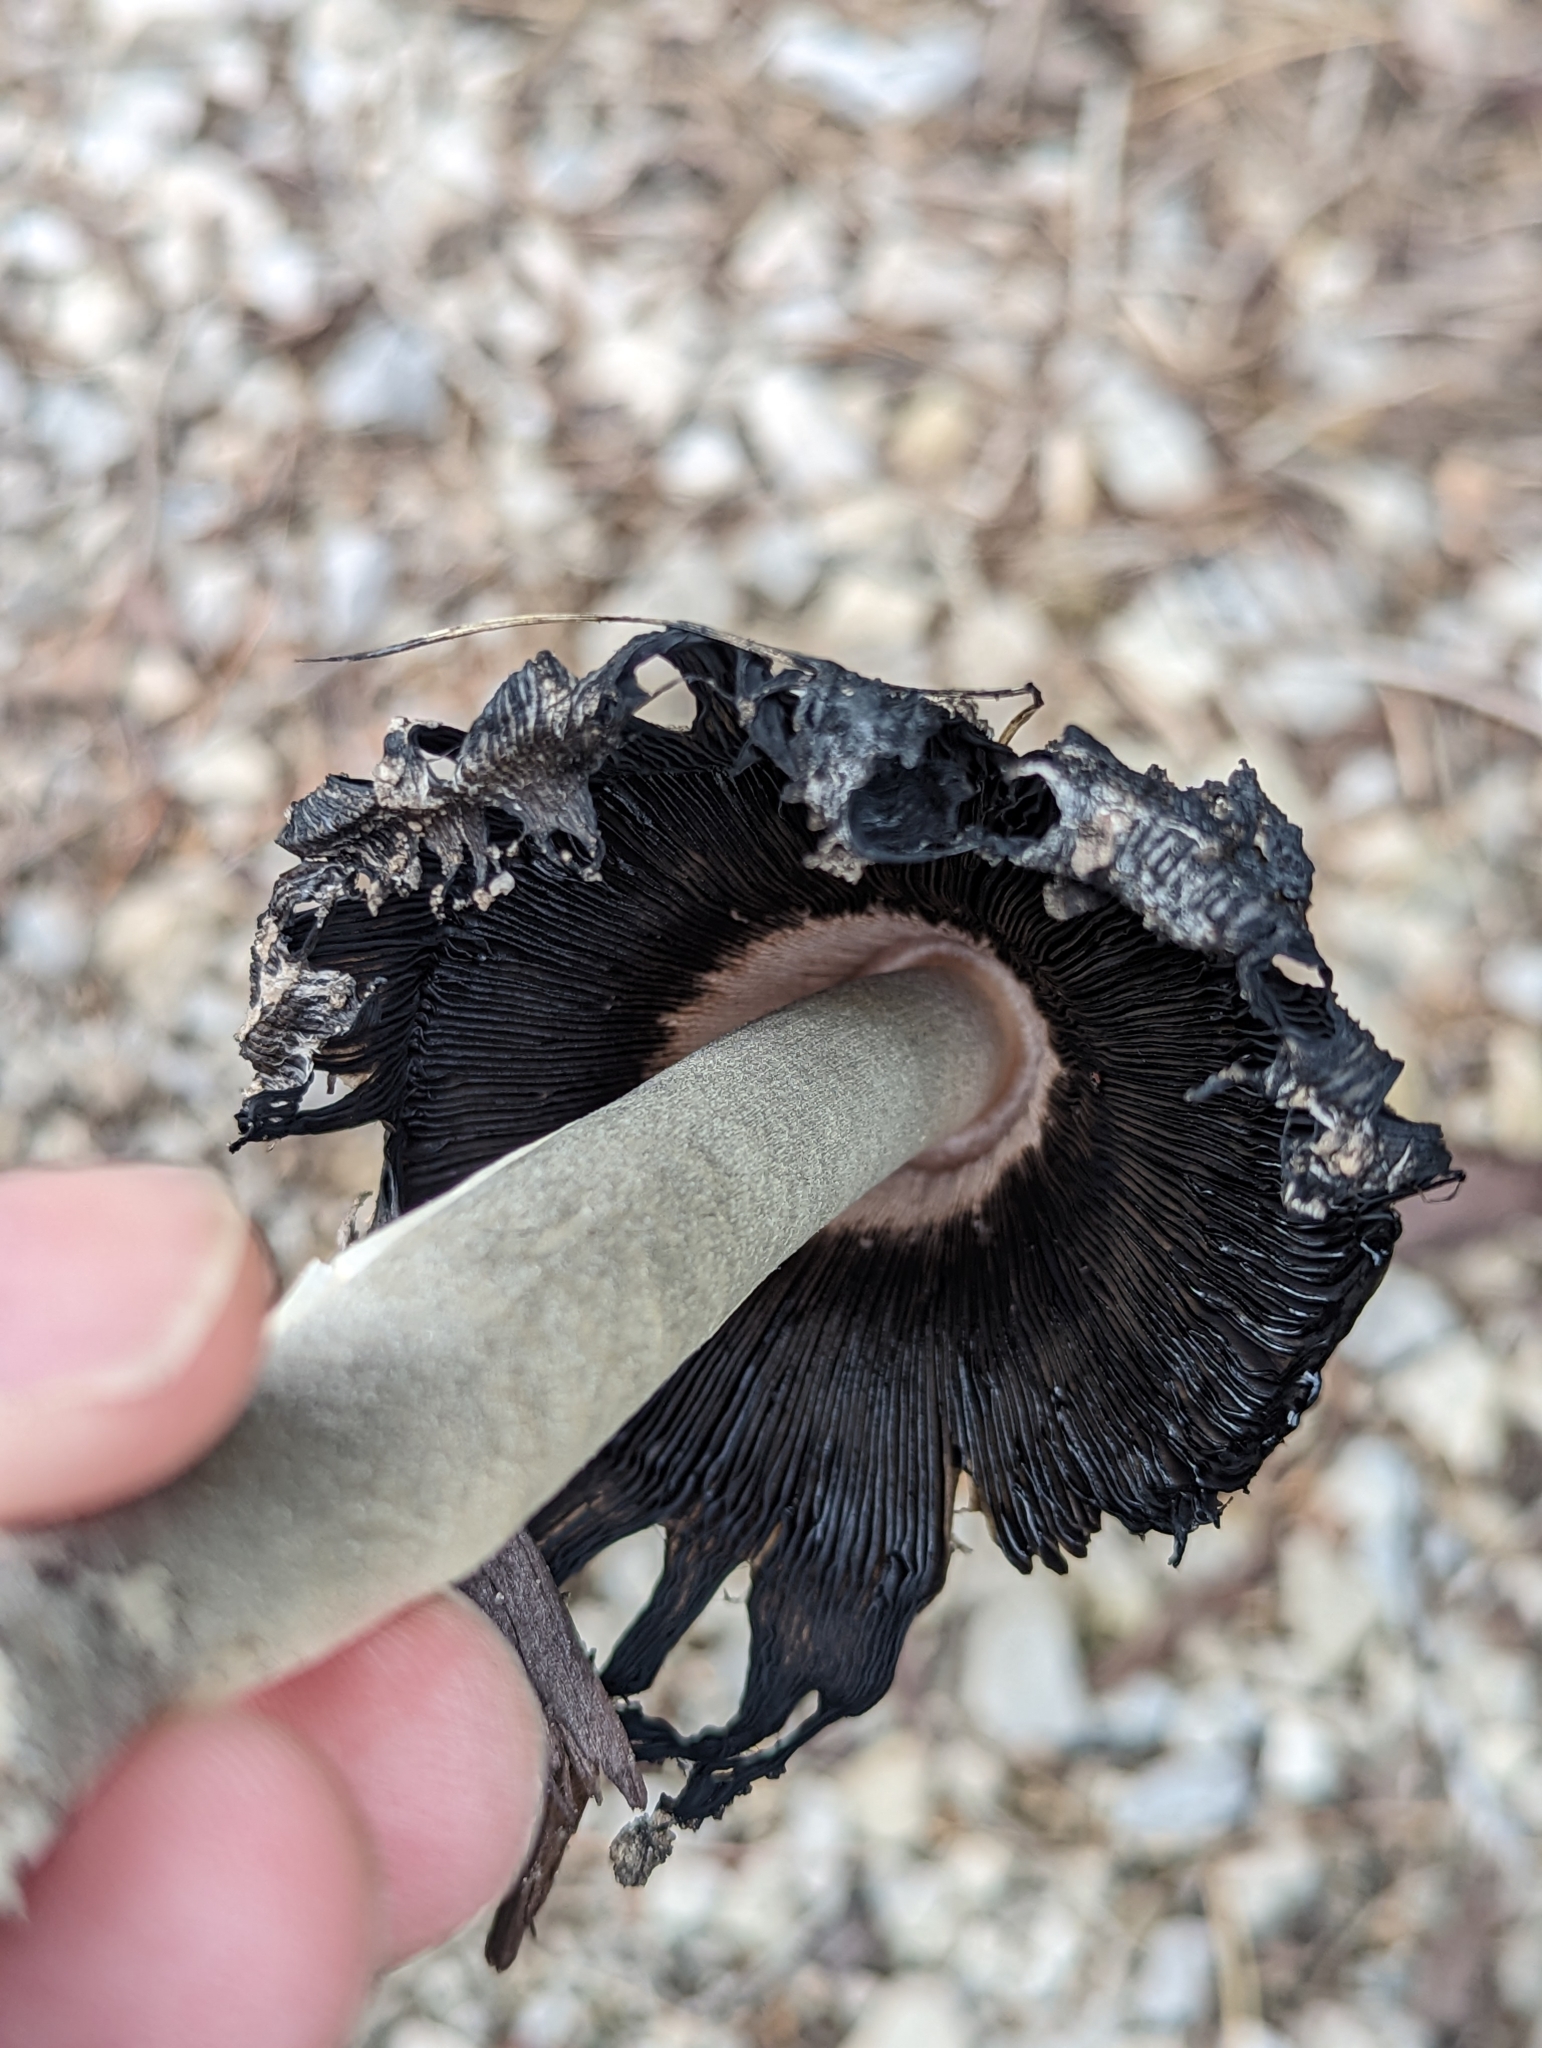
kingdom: Fungi
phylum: Basidiomycota
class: Agaricomycetes
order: Agaricales
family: Agaricaceae
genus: Coprinus
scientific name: Coprinus comatus
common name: Lawyer's wig
